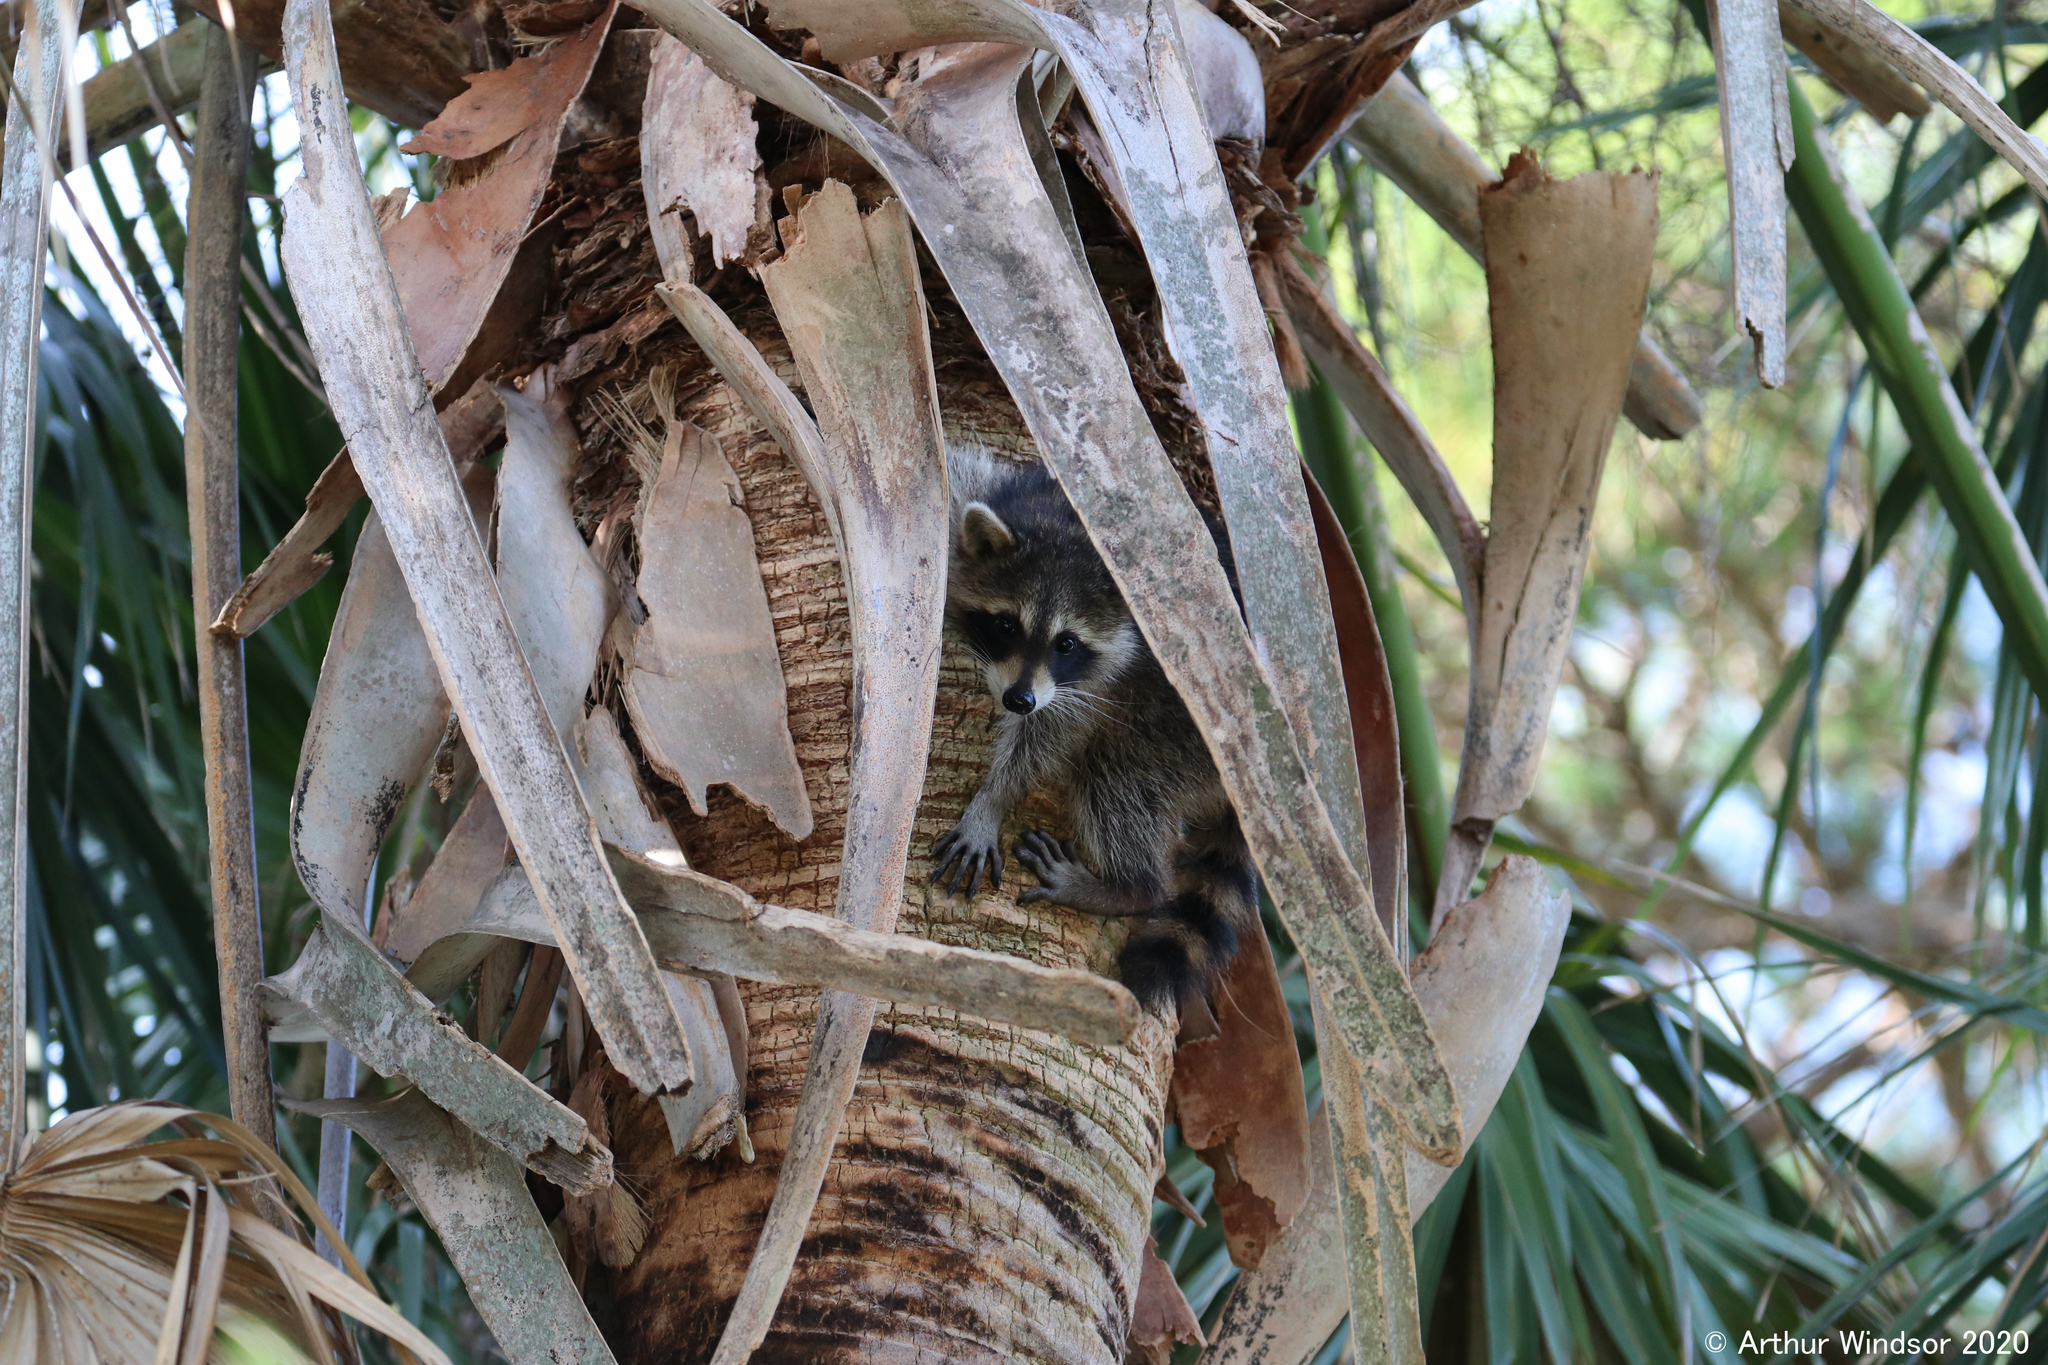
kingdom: Animalia
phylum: Chordata
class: Mammalia
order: Carnivora
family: Procyonidae
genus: Procyon
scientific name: Procyon lotor
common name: Raccoon
